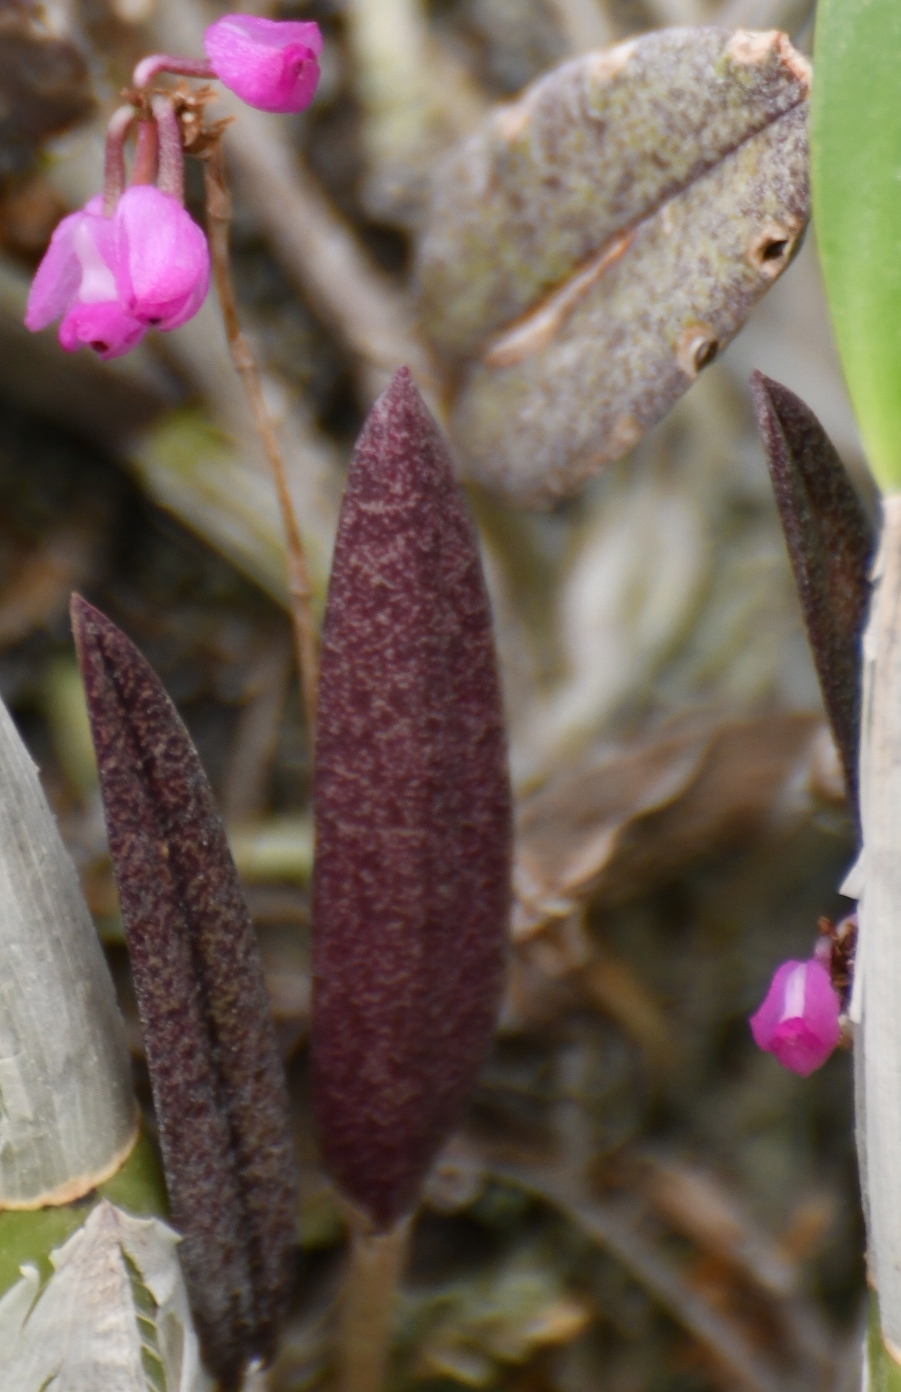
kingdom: Plantae
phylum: Tracheophyta
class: Liliopsida
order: Asparagales
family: Orchidaceae
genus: Domingoa
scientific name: Domingoa purpurea
